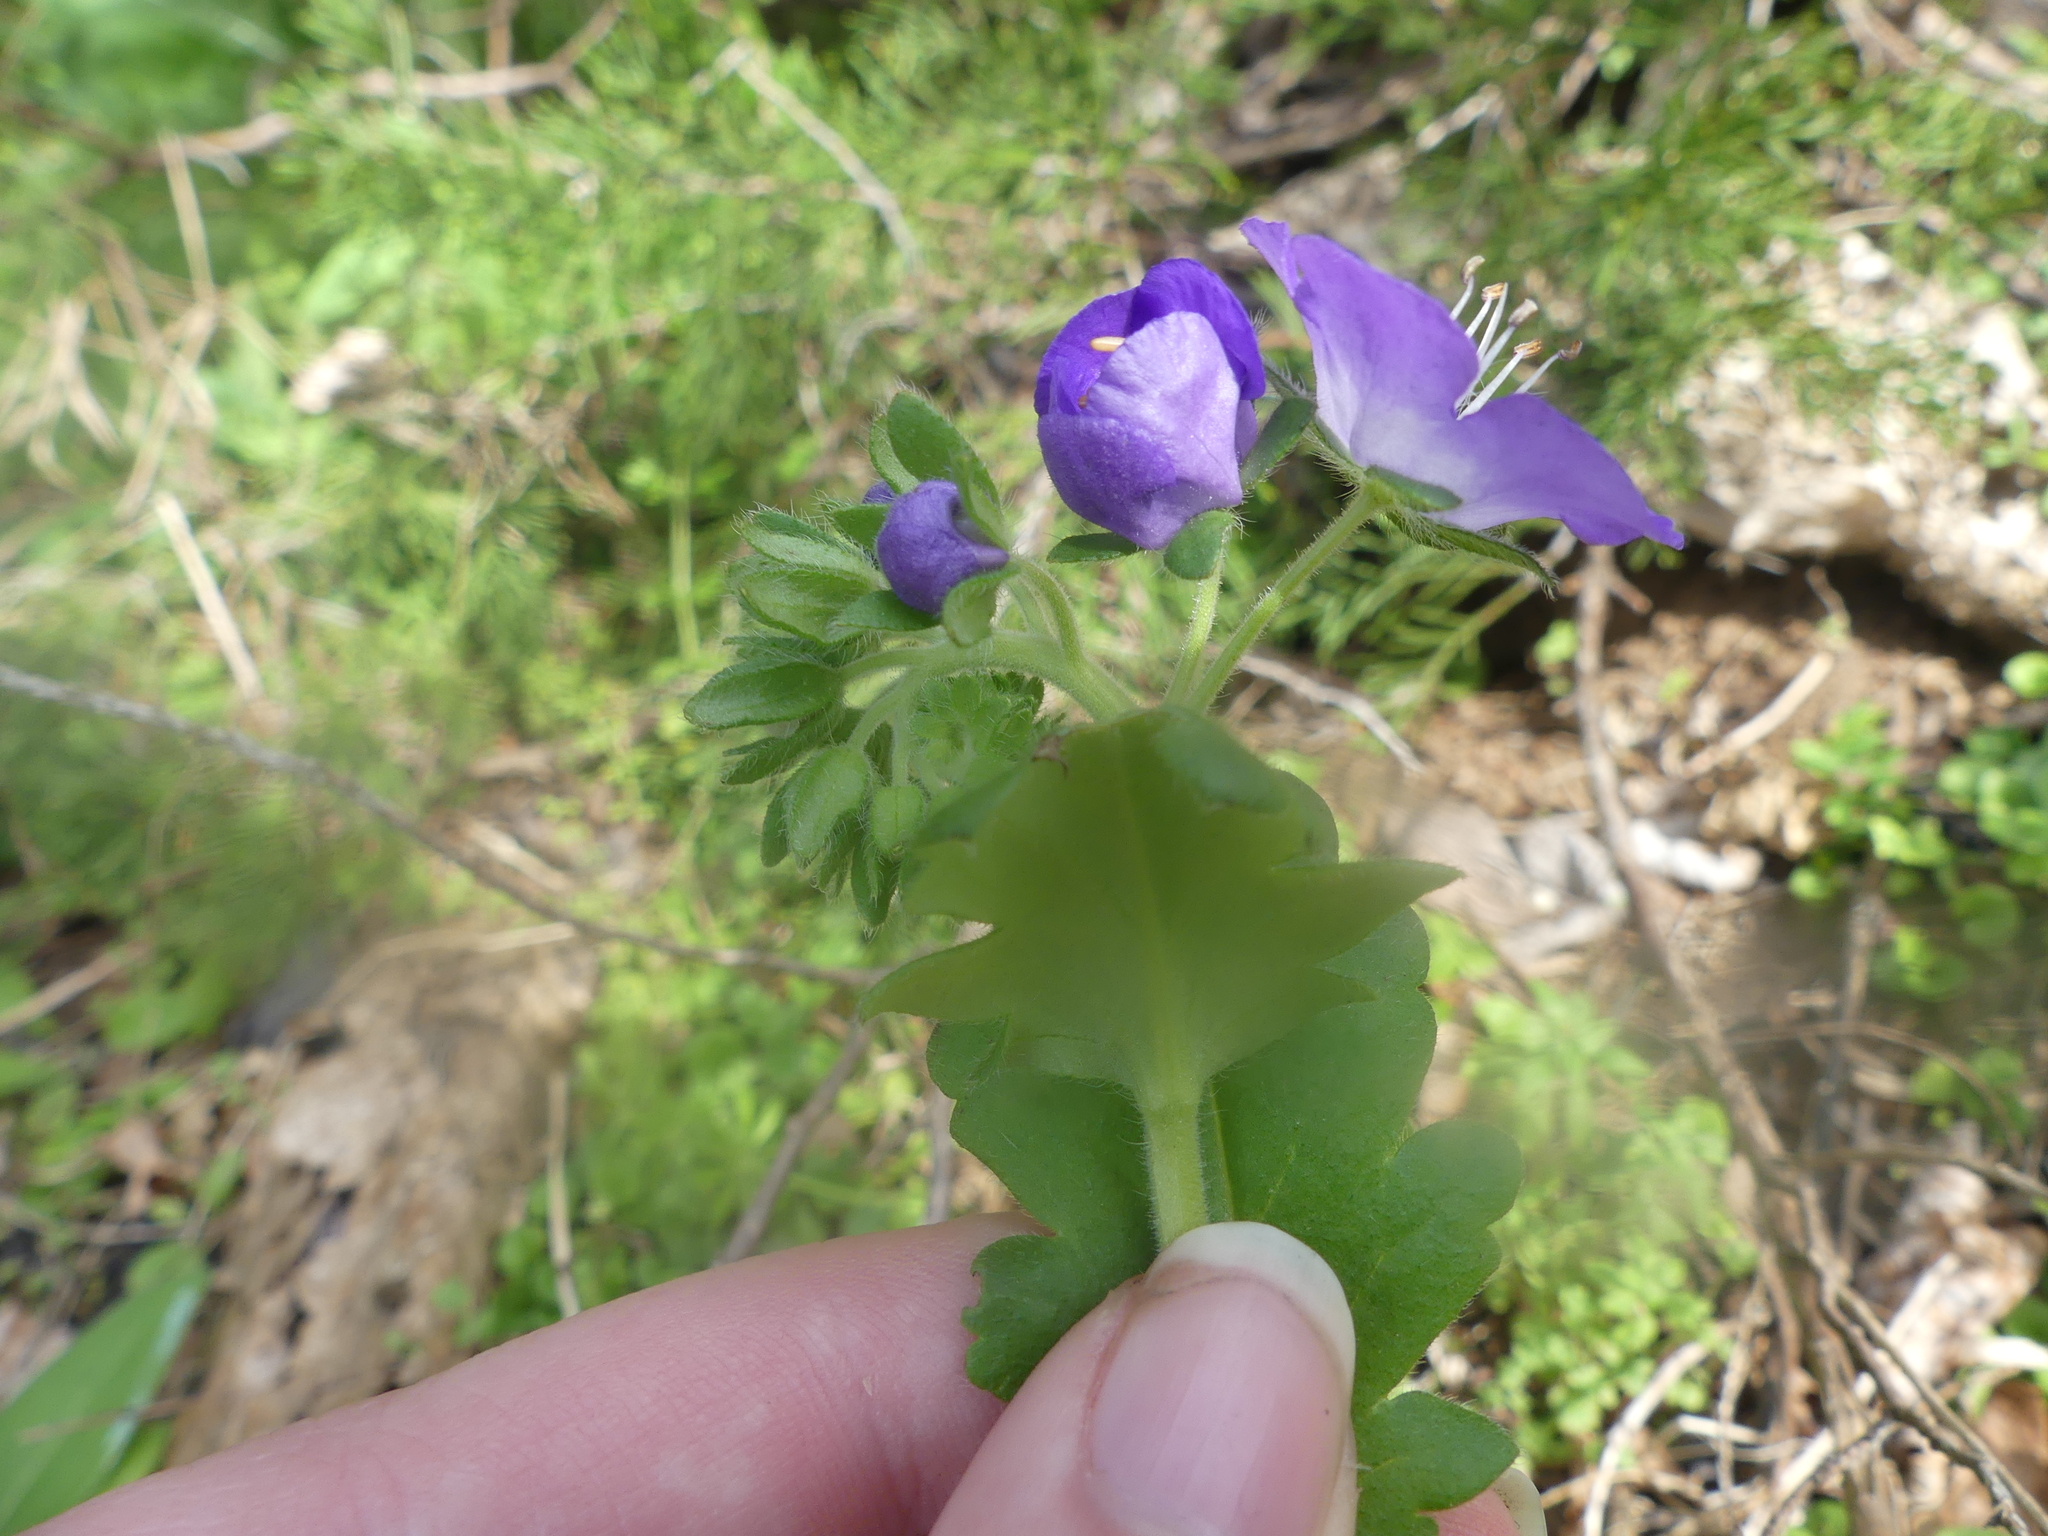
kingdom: Plantae
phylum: Tracheophyta
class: Magnoliopsida
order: Boraginales
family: Hydrophyllaceae
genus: Phacelia
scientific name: Phacelia patuliflora
